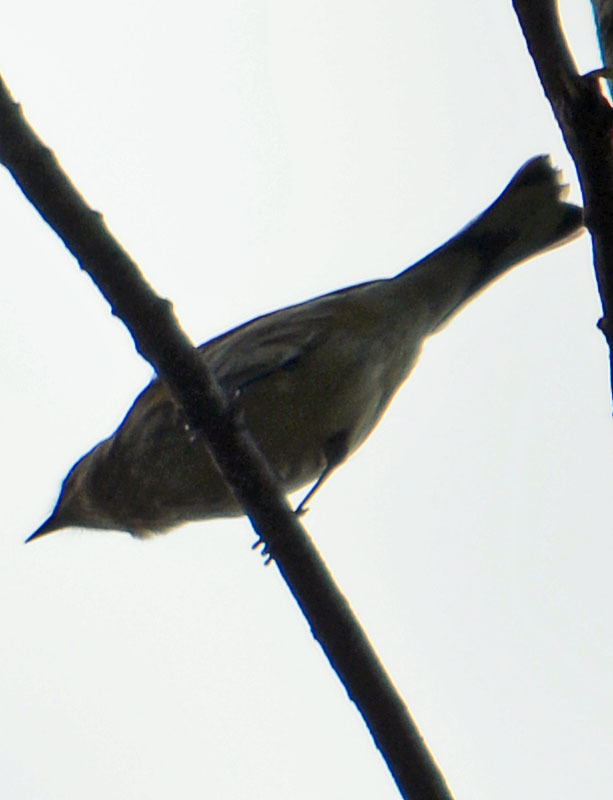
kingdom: Animalia
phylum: Chordata
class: Aves
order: Passeriformes
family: Parulidae
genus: Setophaga
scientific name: Setophaga coronata
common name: Myrtle warbler
